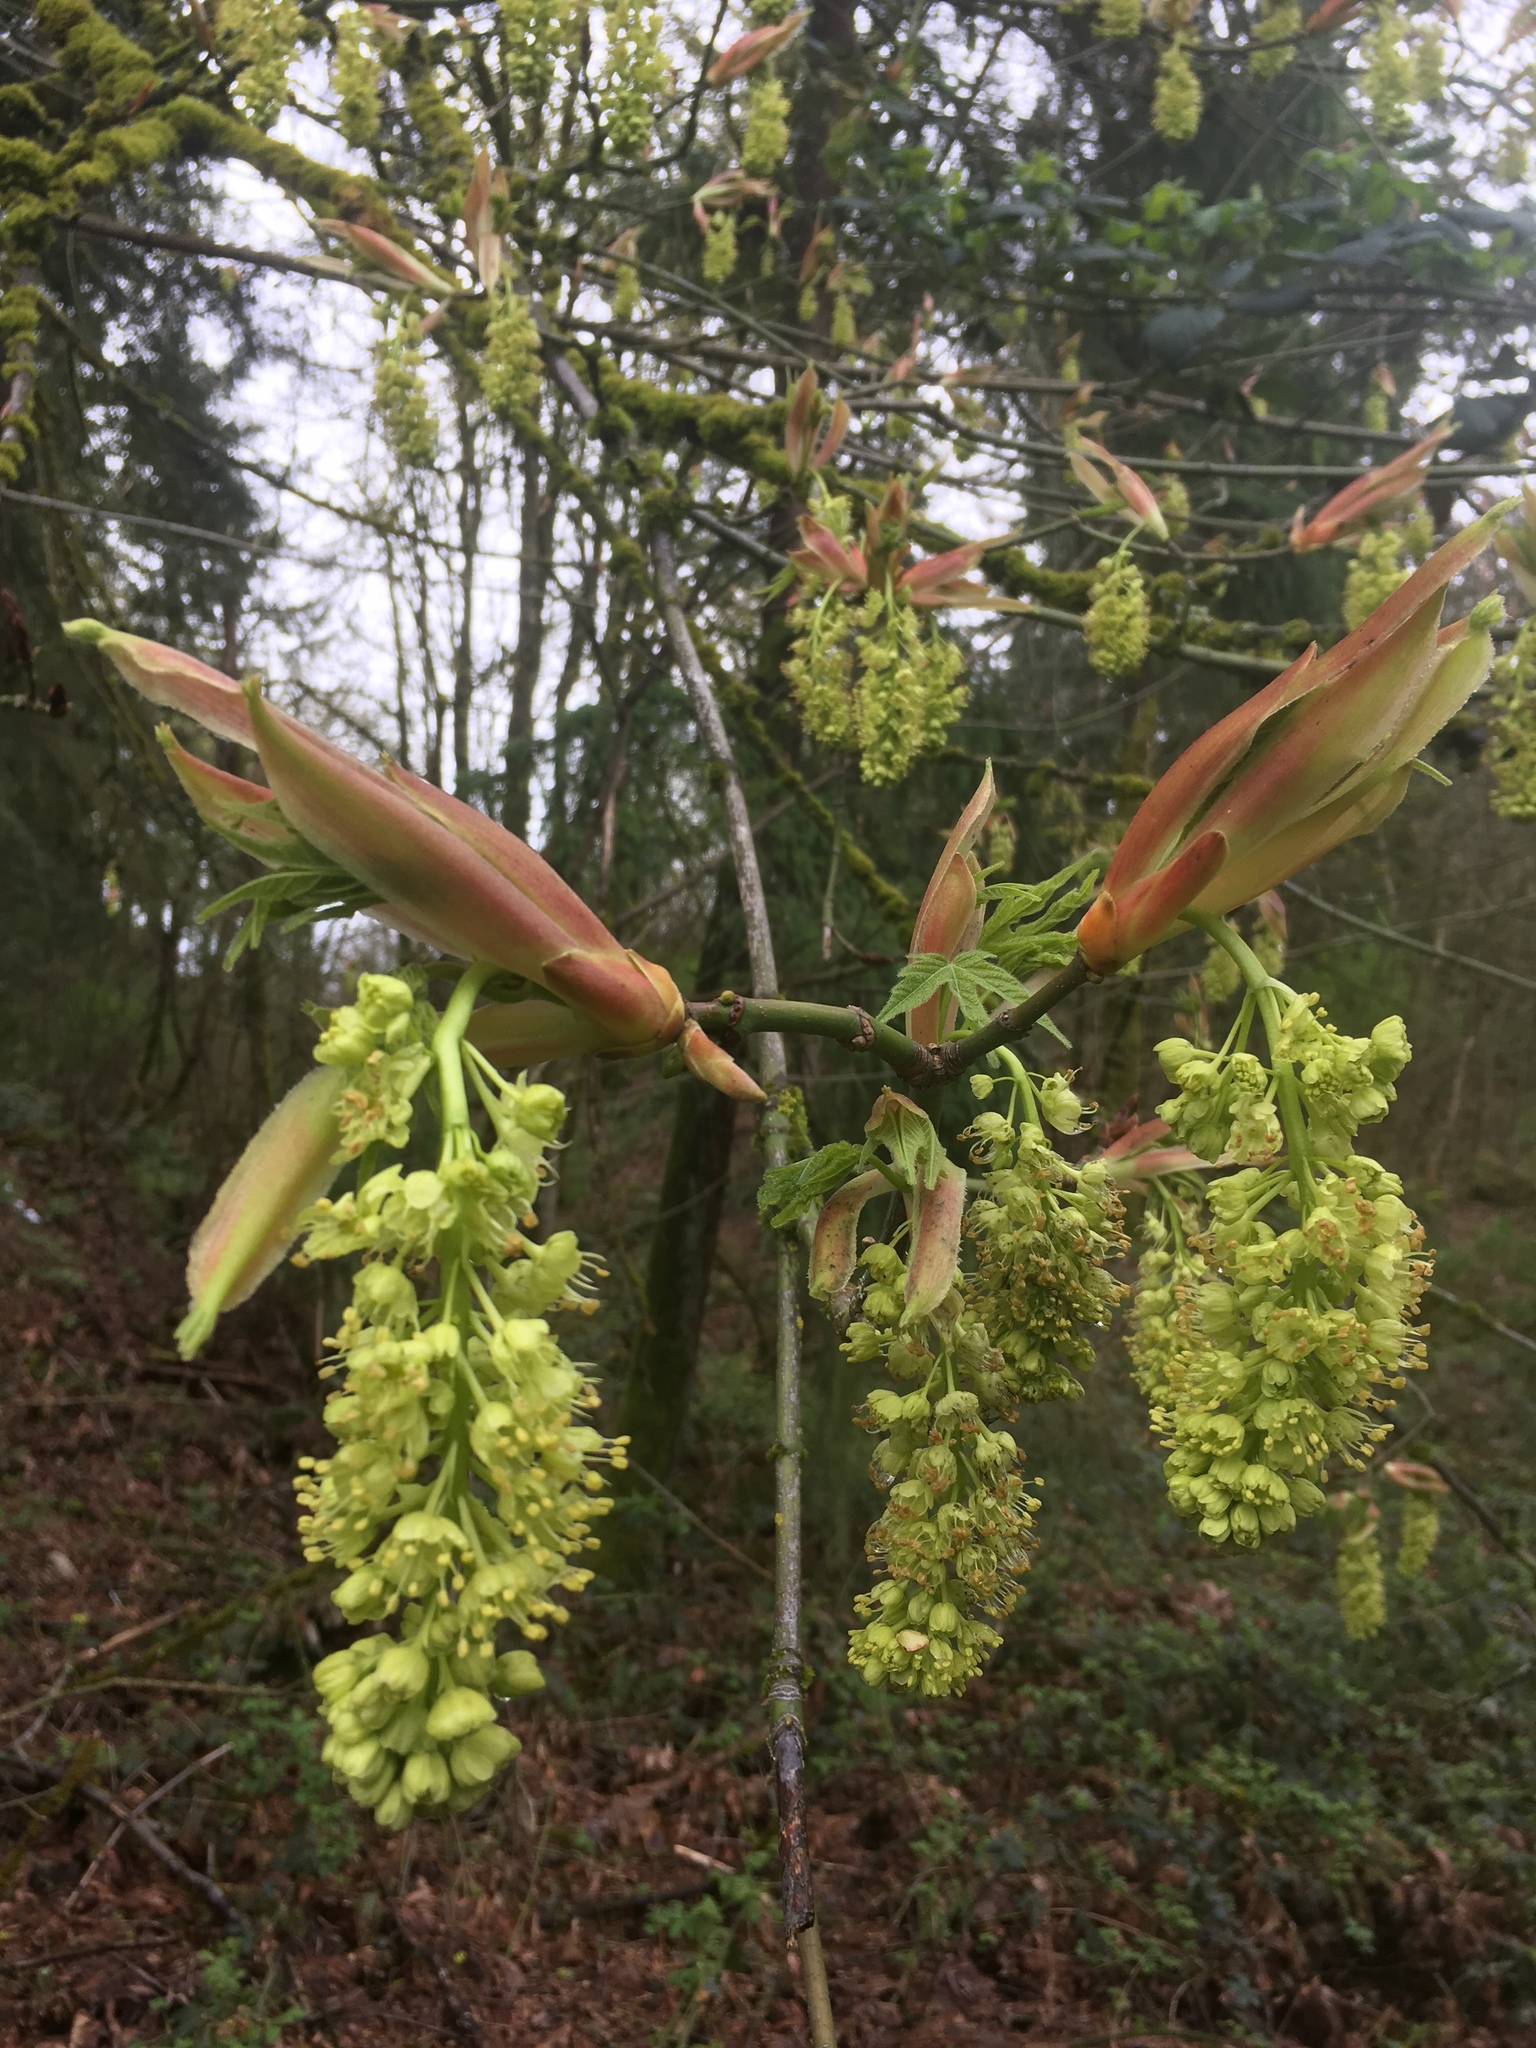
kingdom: Plantae
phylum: Tracheophyta
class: Magnoliopsida
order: Sapindales
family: Sapindaceae
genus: Acer
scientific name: Acer macrophyllum
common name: Oregon maple
